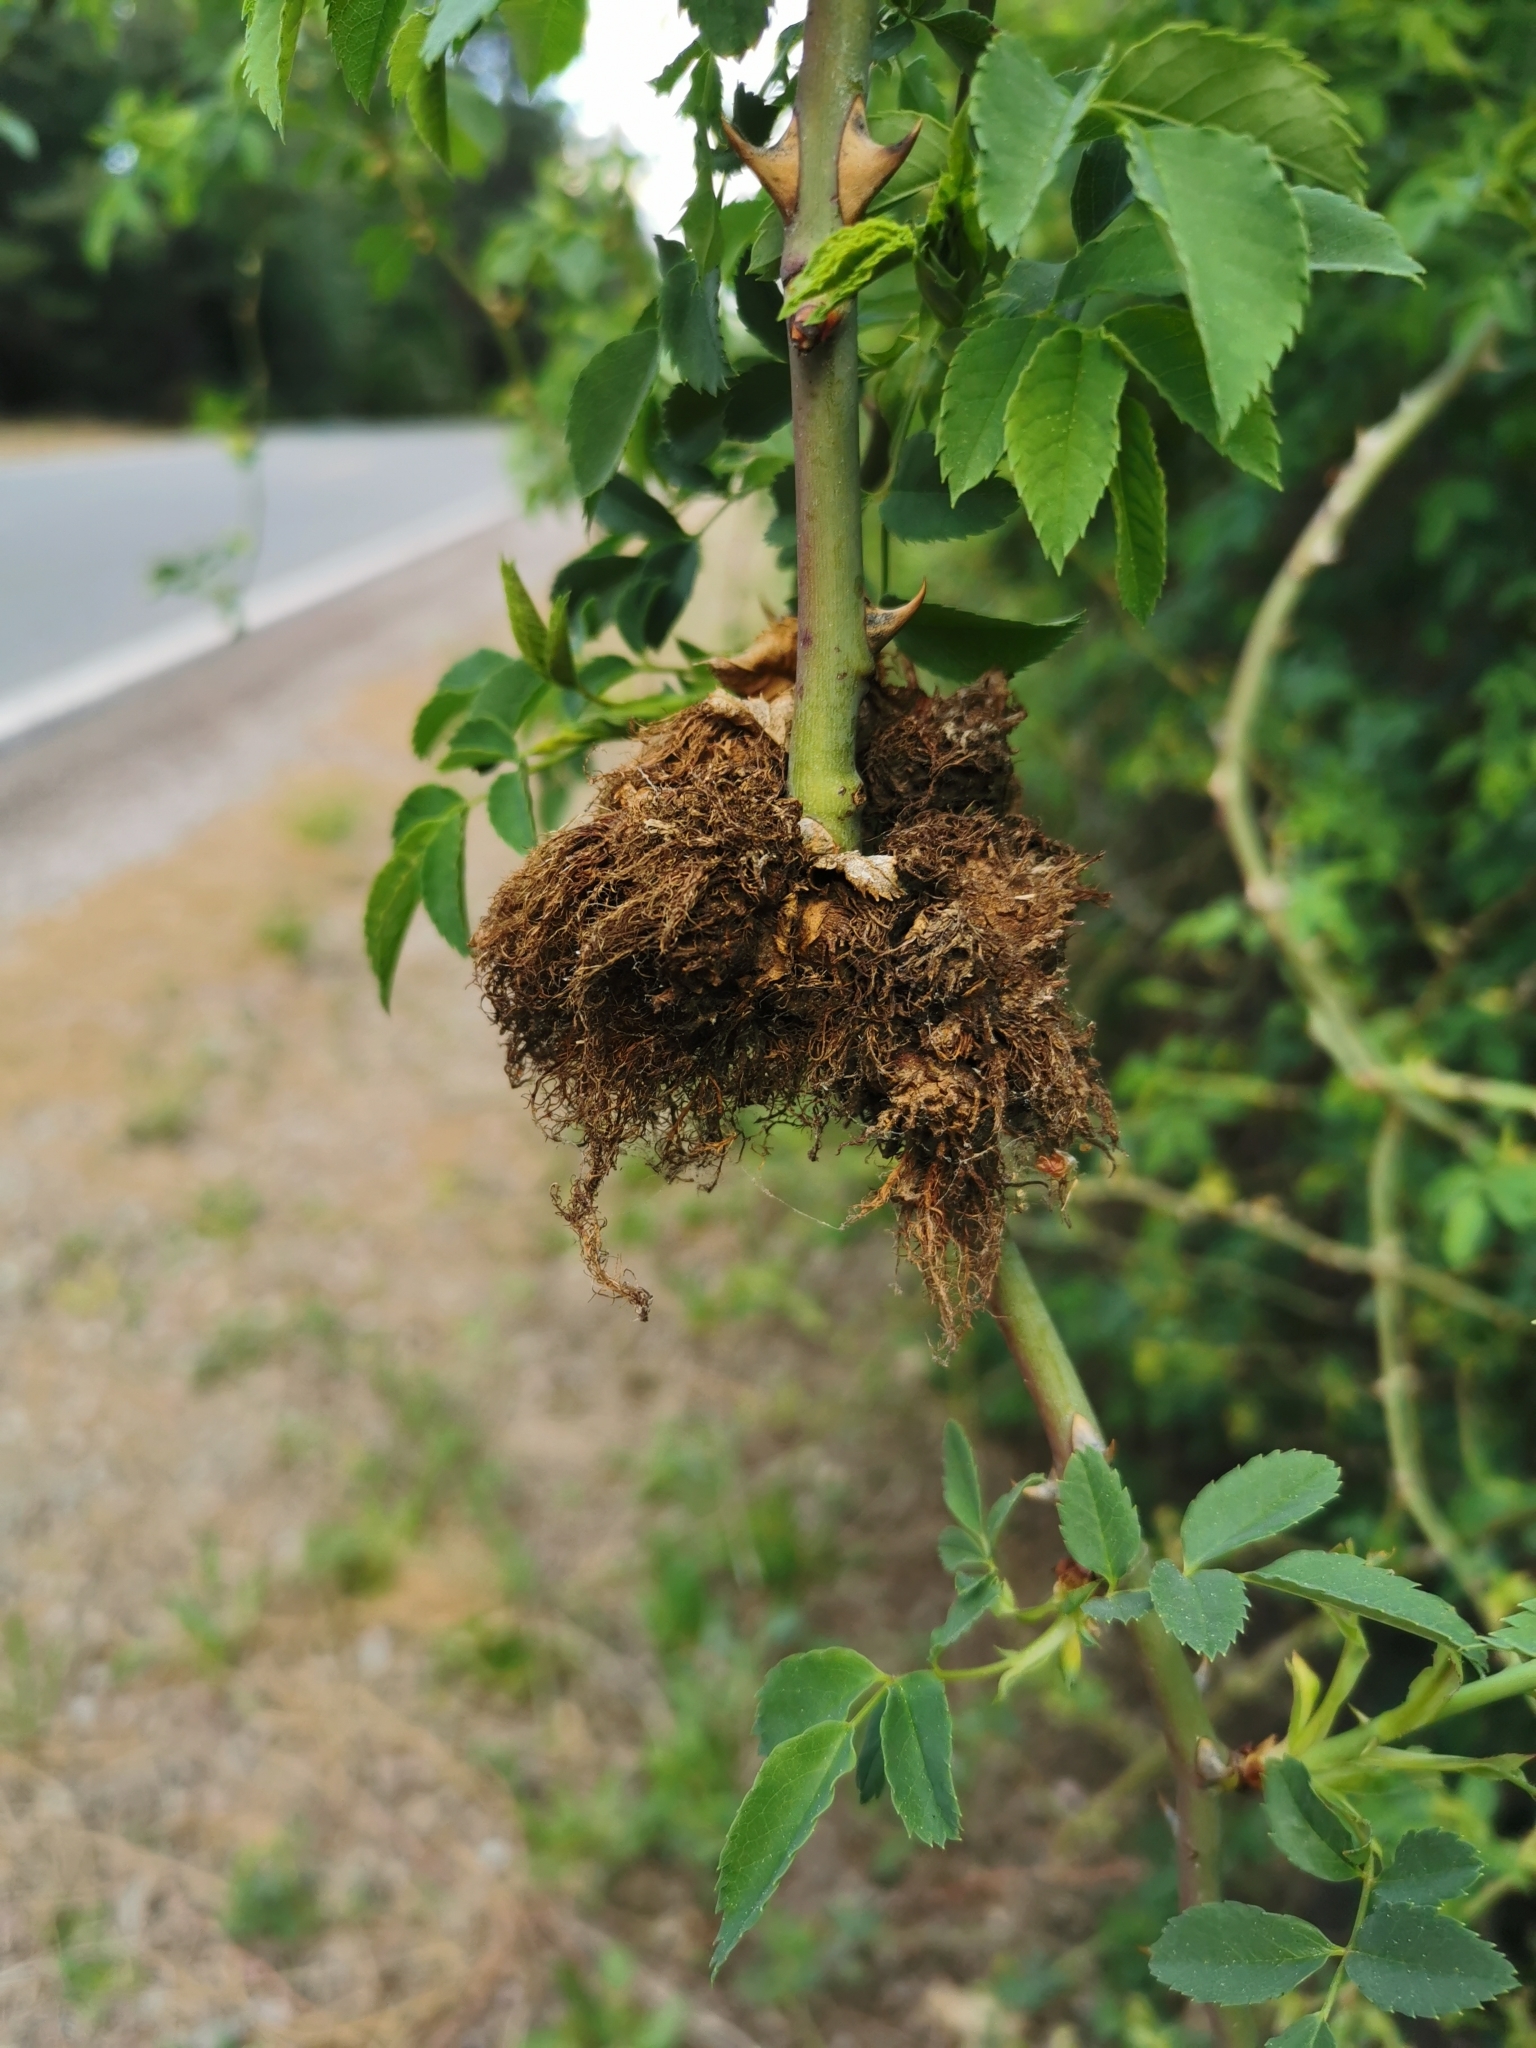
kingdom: Animalia
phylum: Arthropoda
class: Insecta
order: Hymenoptera
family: Cynipidae
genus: Diplolepis
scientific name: Diplolepis rosae
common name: Bedeguar gall
